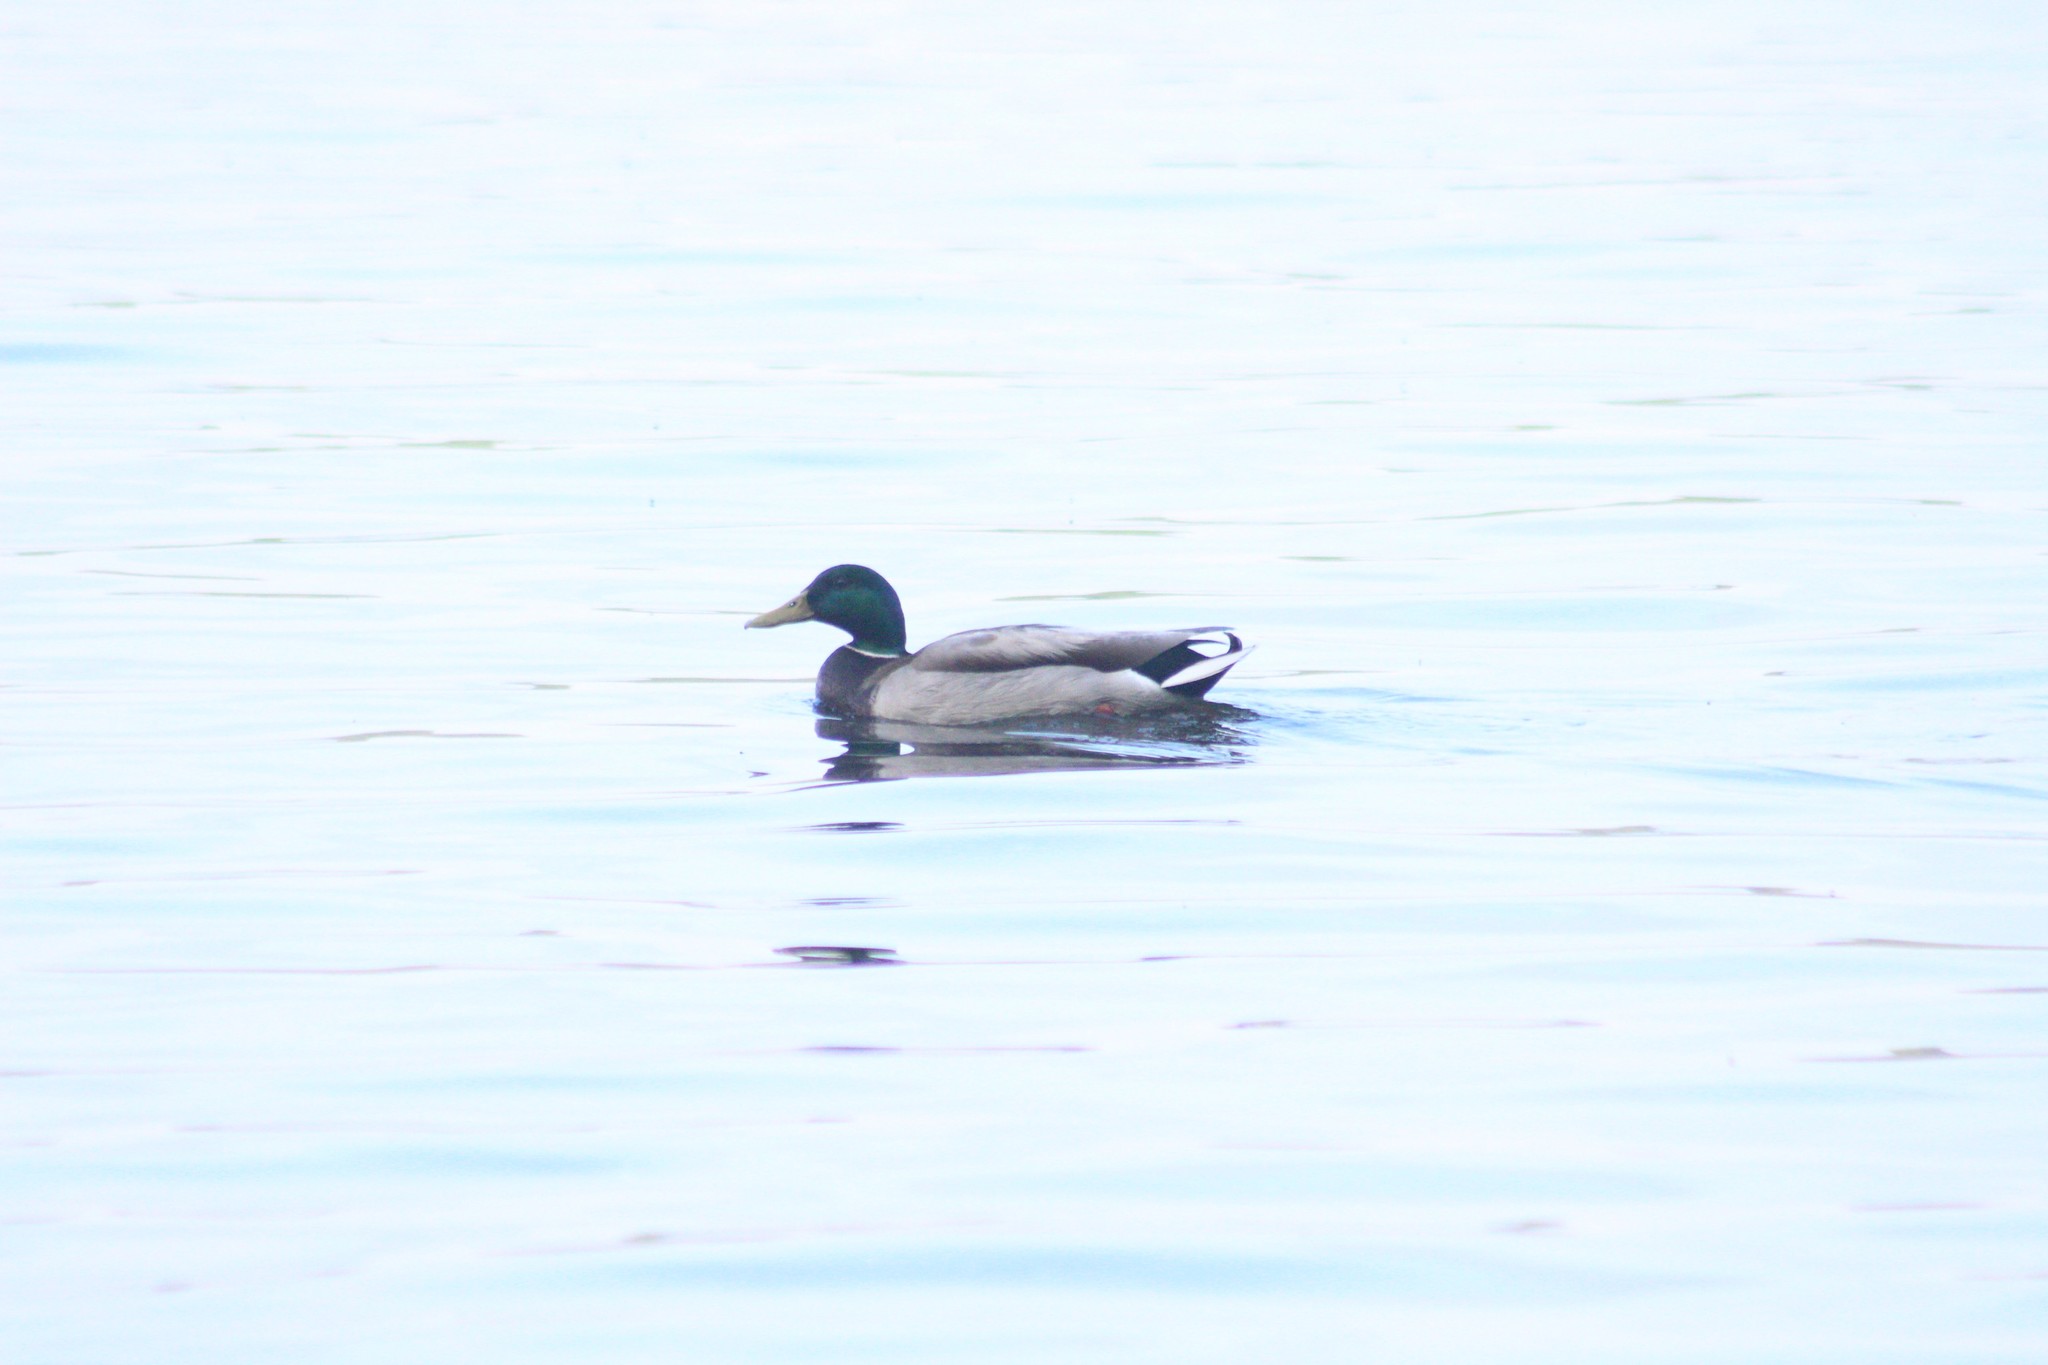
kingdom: Animalia
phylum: Chordata
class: Aves
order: Anseriformes
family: Anatidae
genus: Anas
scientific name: Anas platyrhynchos
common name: Mallard
